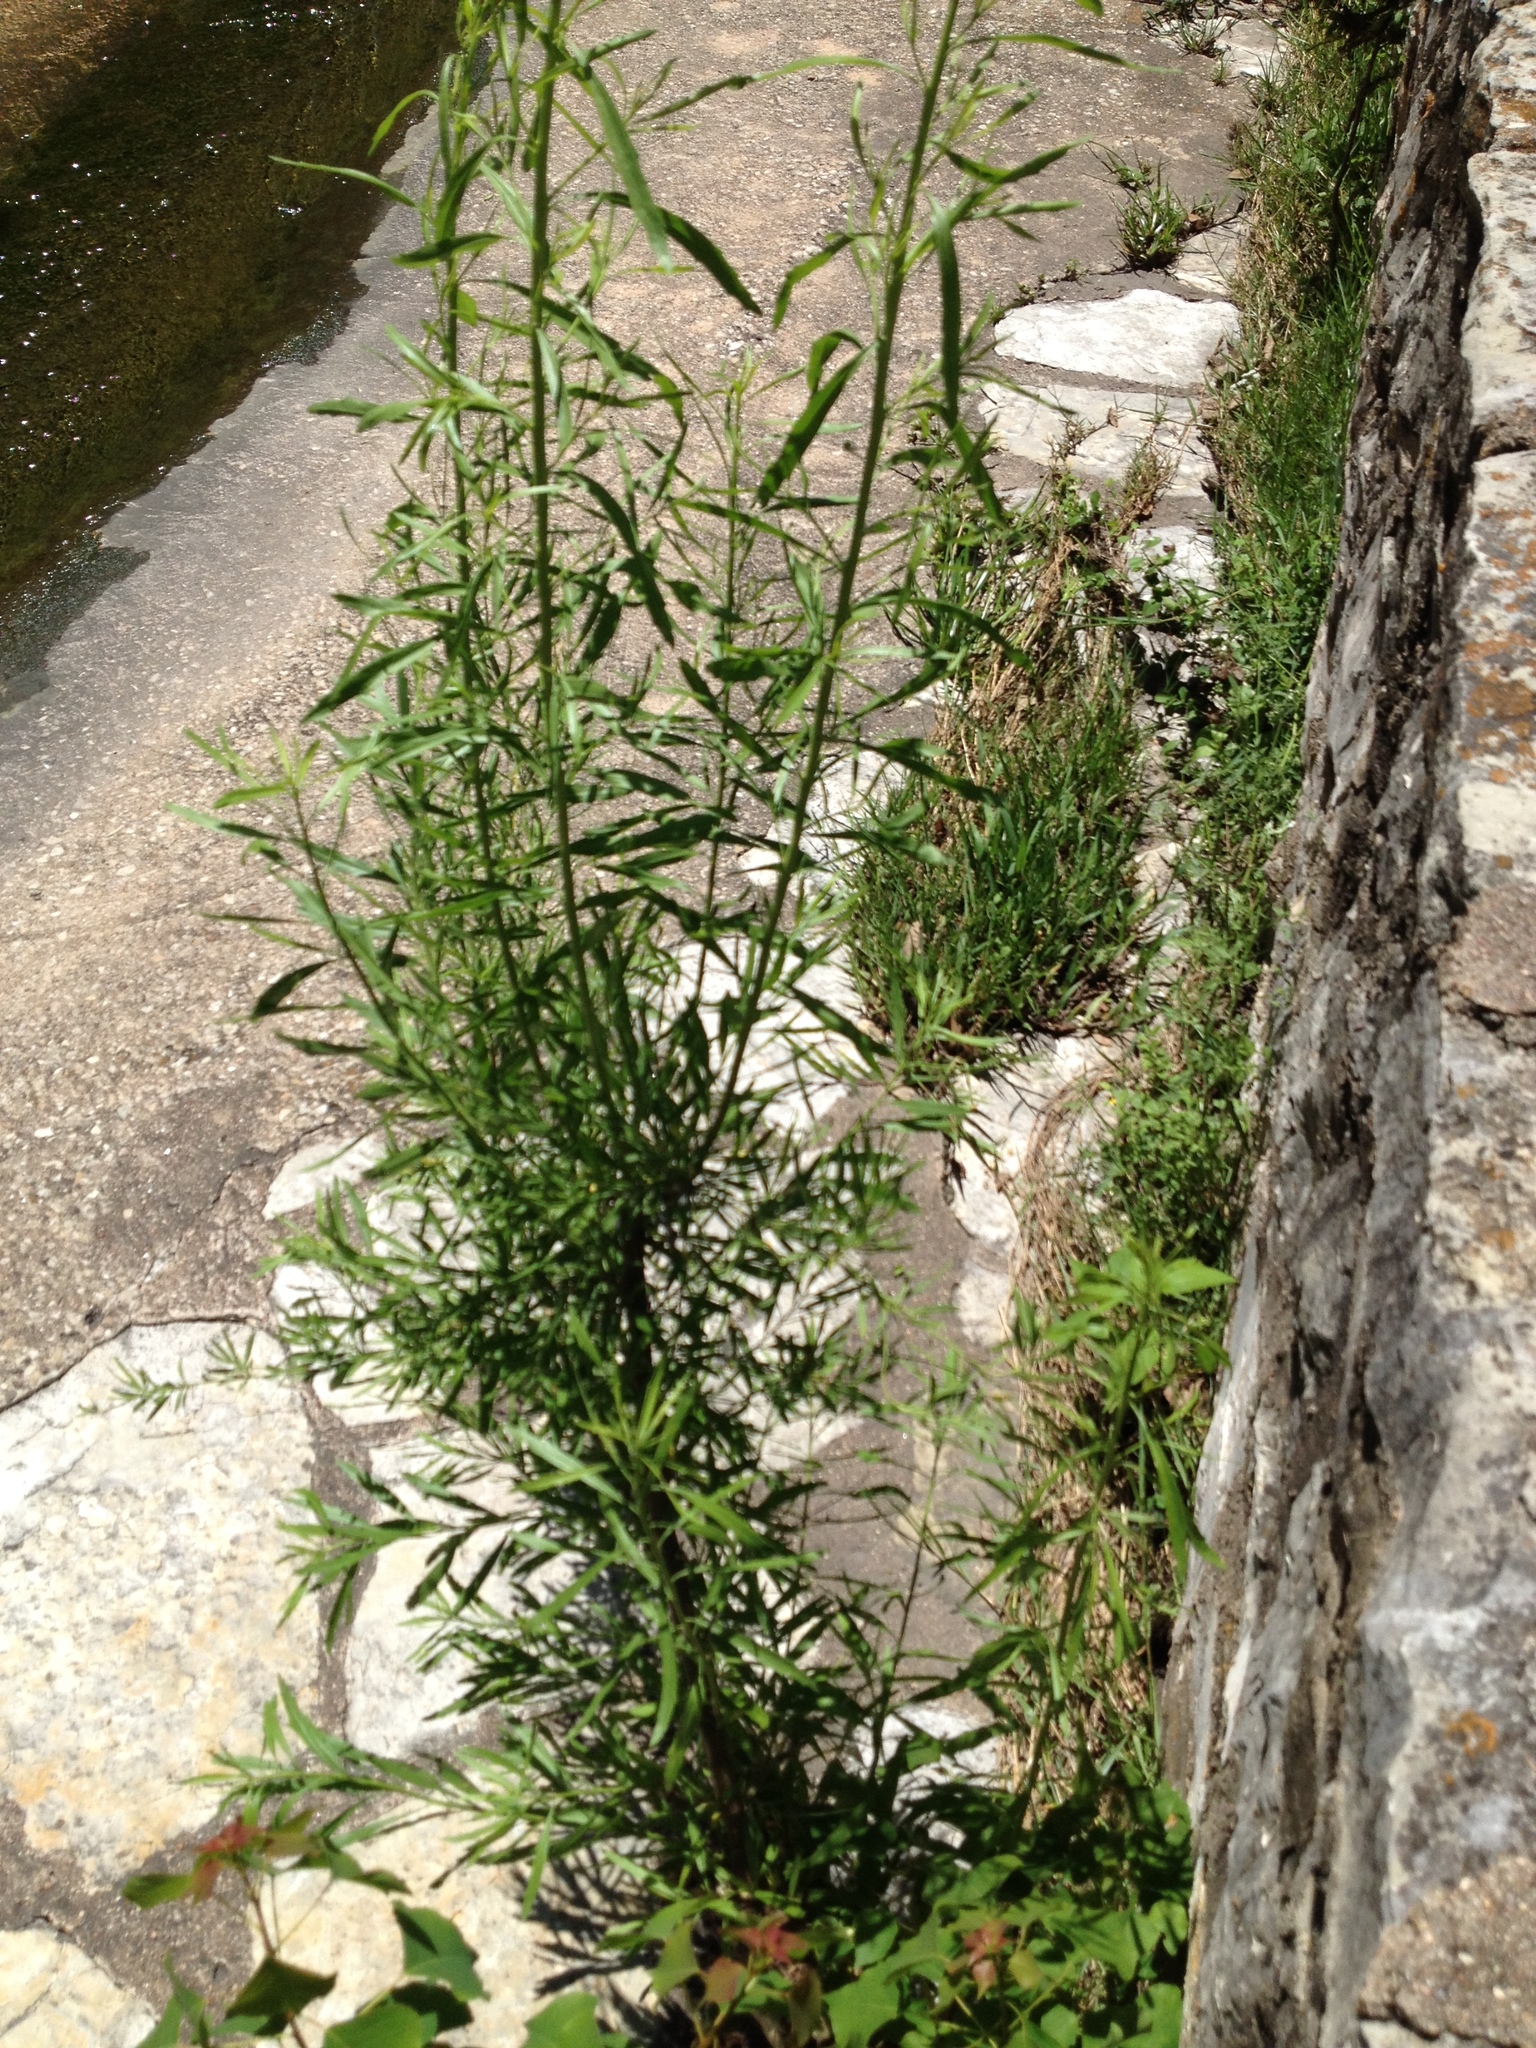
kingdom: Plantae
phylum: Tracheophyta
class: Magnoliopsida
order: Asterales
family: Asteraceae
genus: Baccharis
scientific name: Baccharis neglecta
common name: Roosevelt-weed
